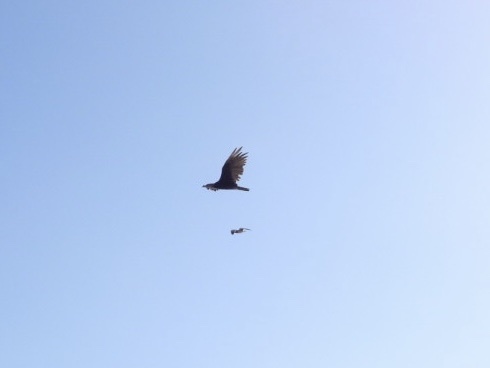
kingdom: Animalia
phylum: Chordata
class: Aves
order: Accipitriformes
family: Cathartidae
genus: Cathartes
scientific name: Cathartes aura
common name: Turkey vulture
